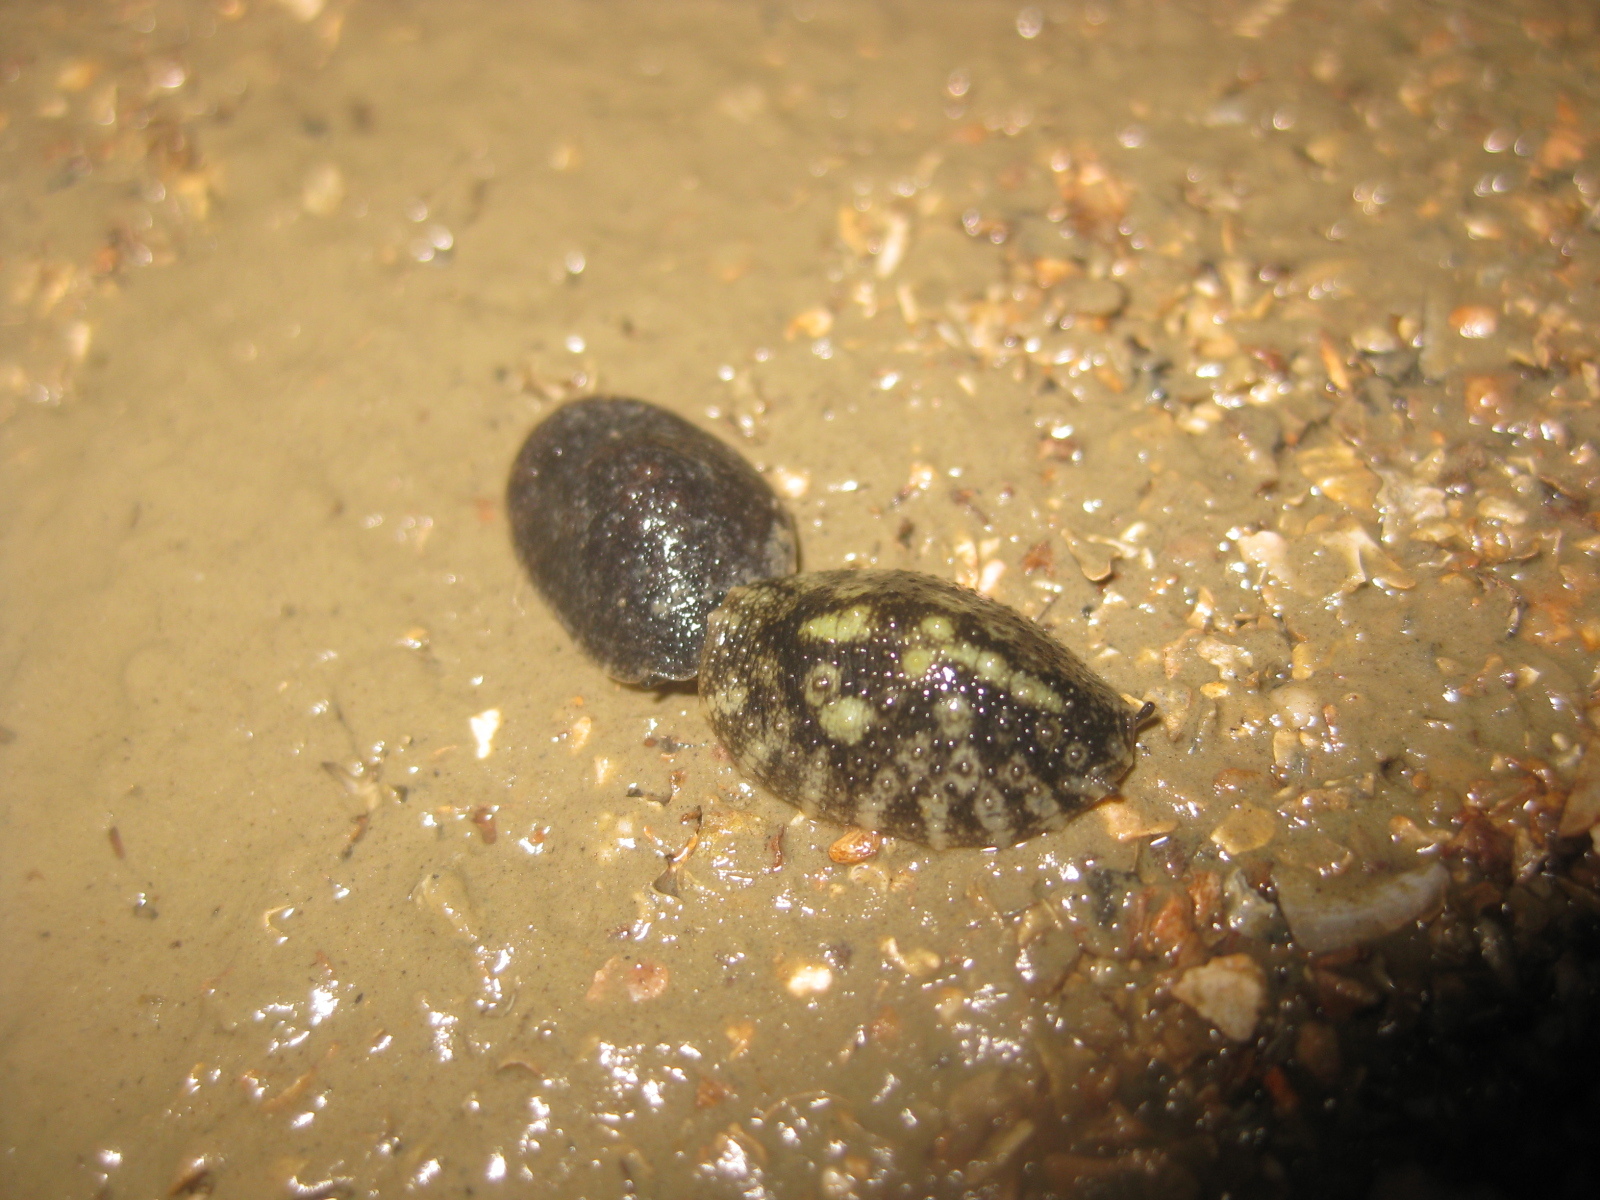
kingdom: Animalia
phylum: Mollusca
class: Gastropoda
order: Systellommatophora
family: Onchidiidae
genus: Onchidella
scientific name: Onchidella nigricans
